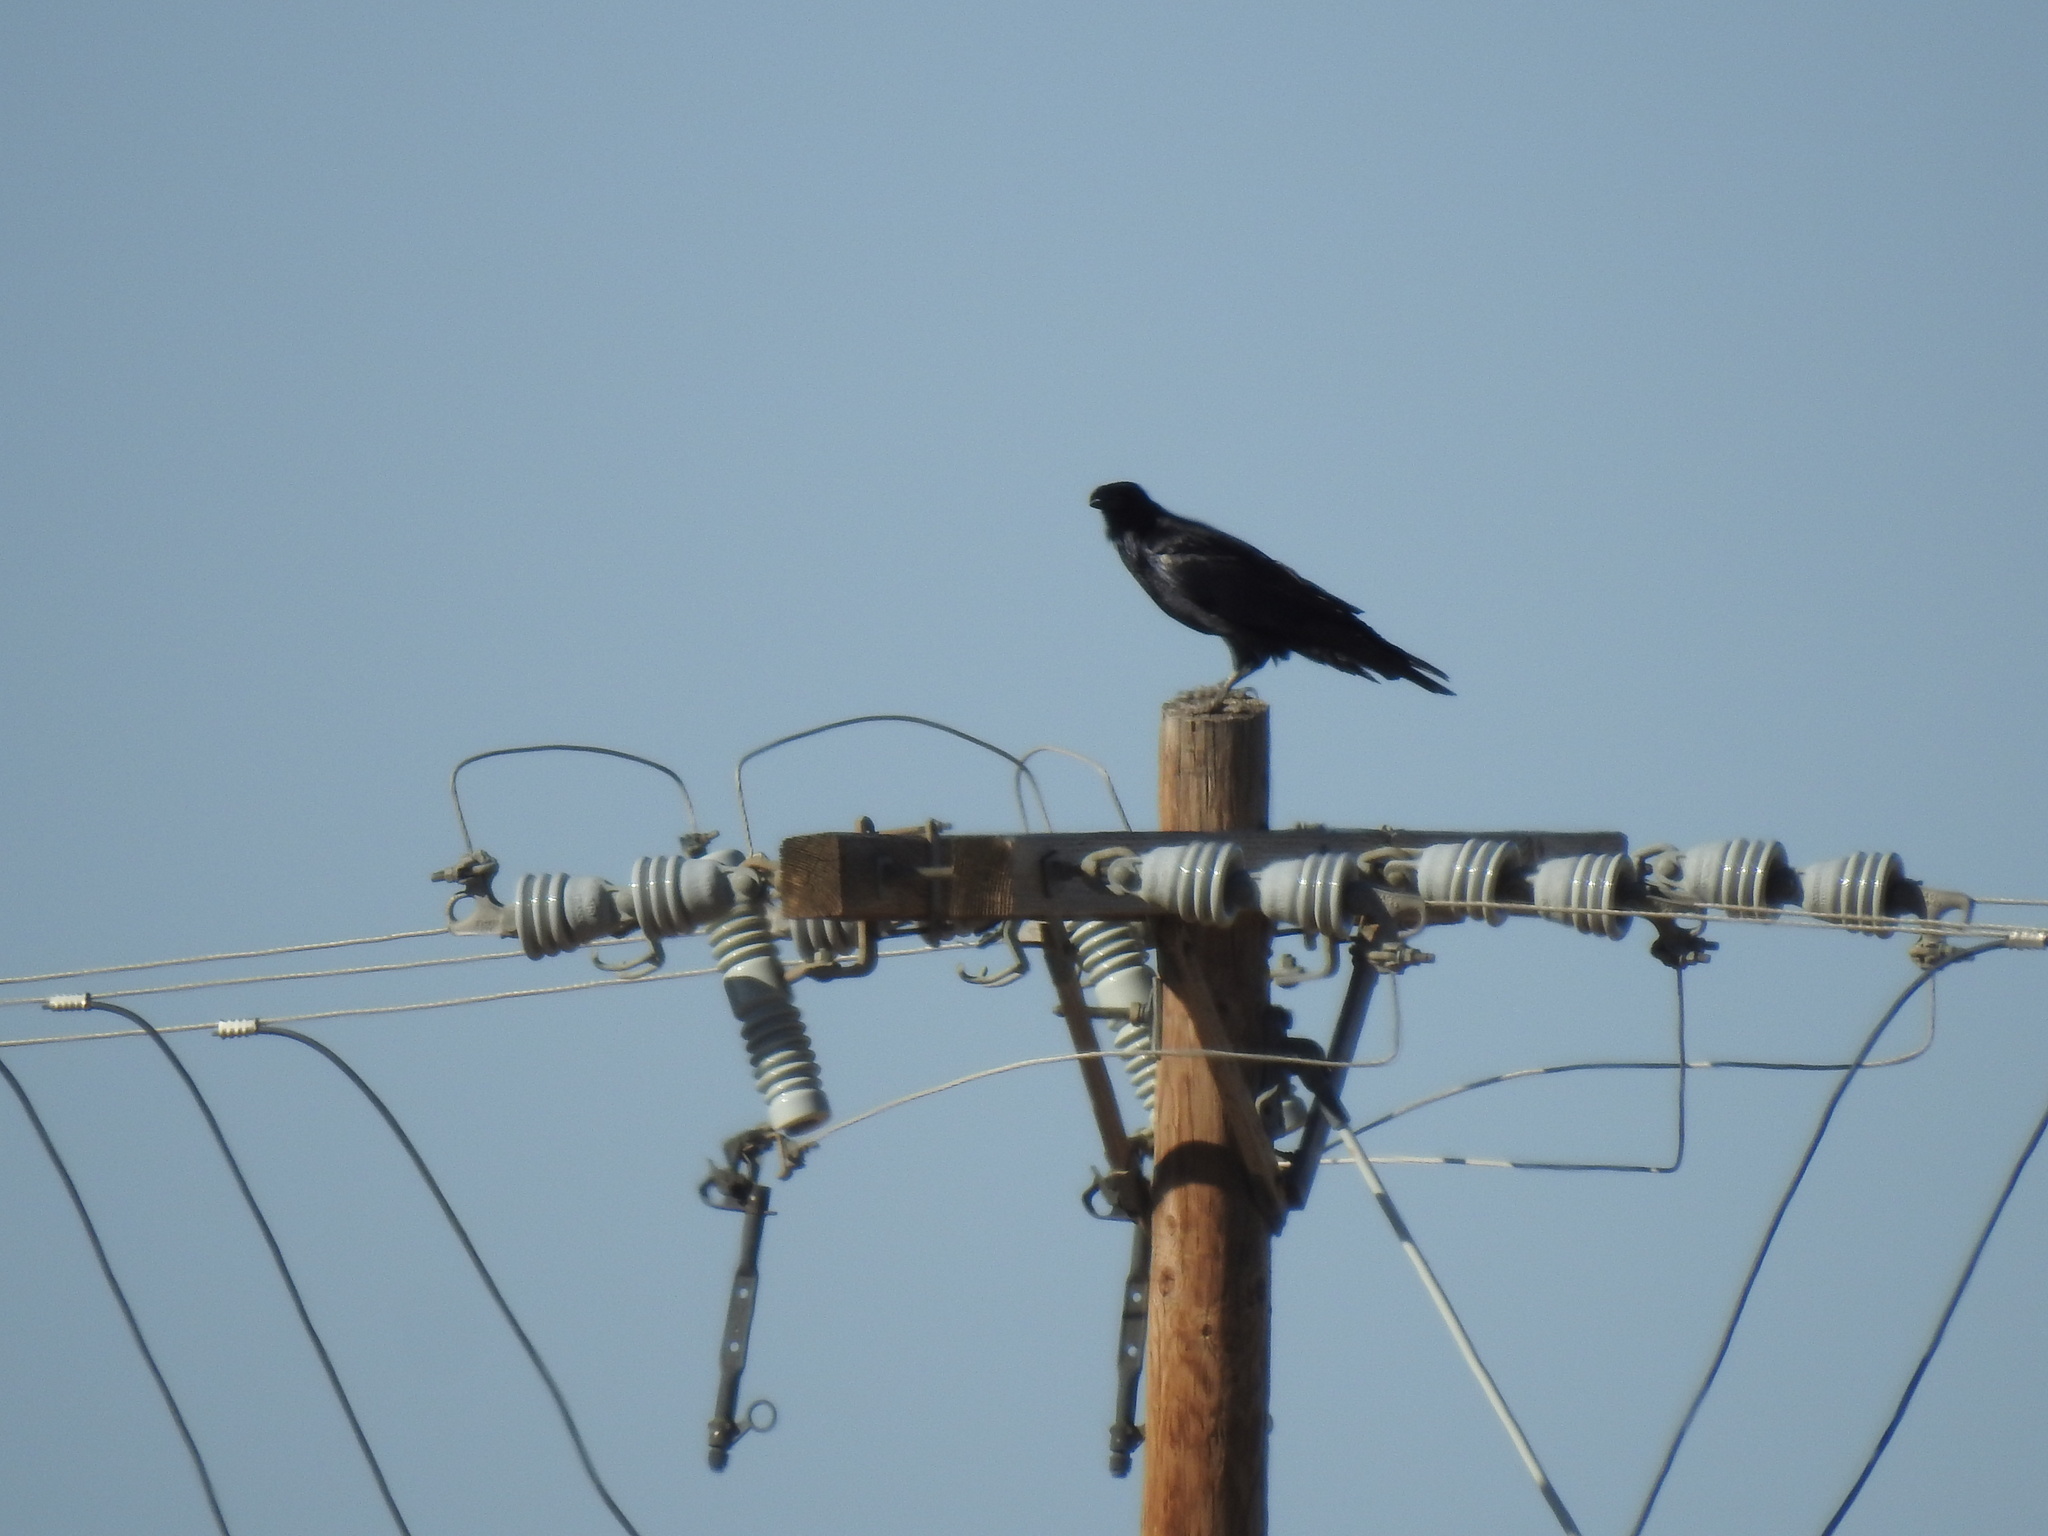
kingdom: Animalia
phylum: Chordata
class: Aves
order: Passeriformes
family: Corvidae
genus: Corvus
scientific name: Corvus corax
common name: Common raven
